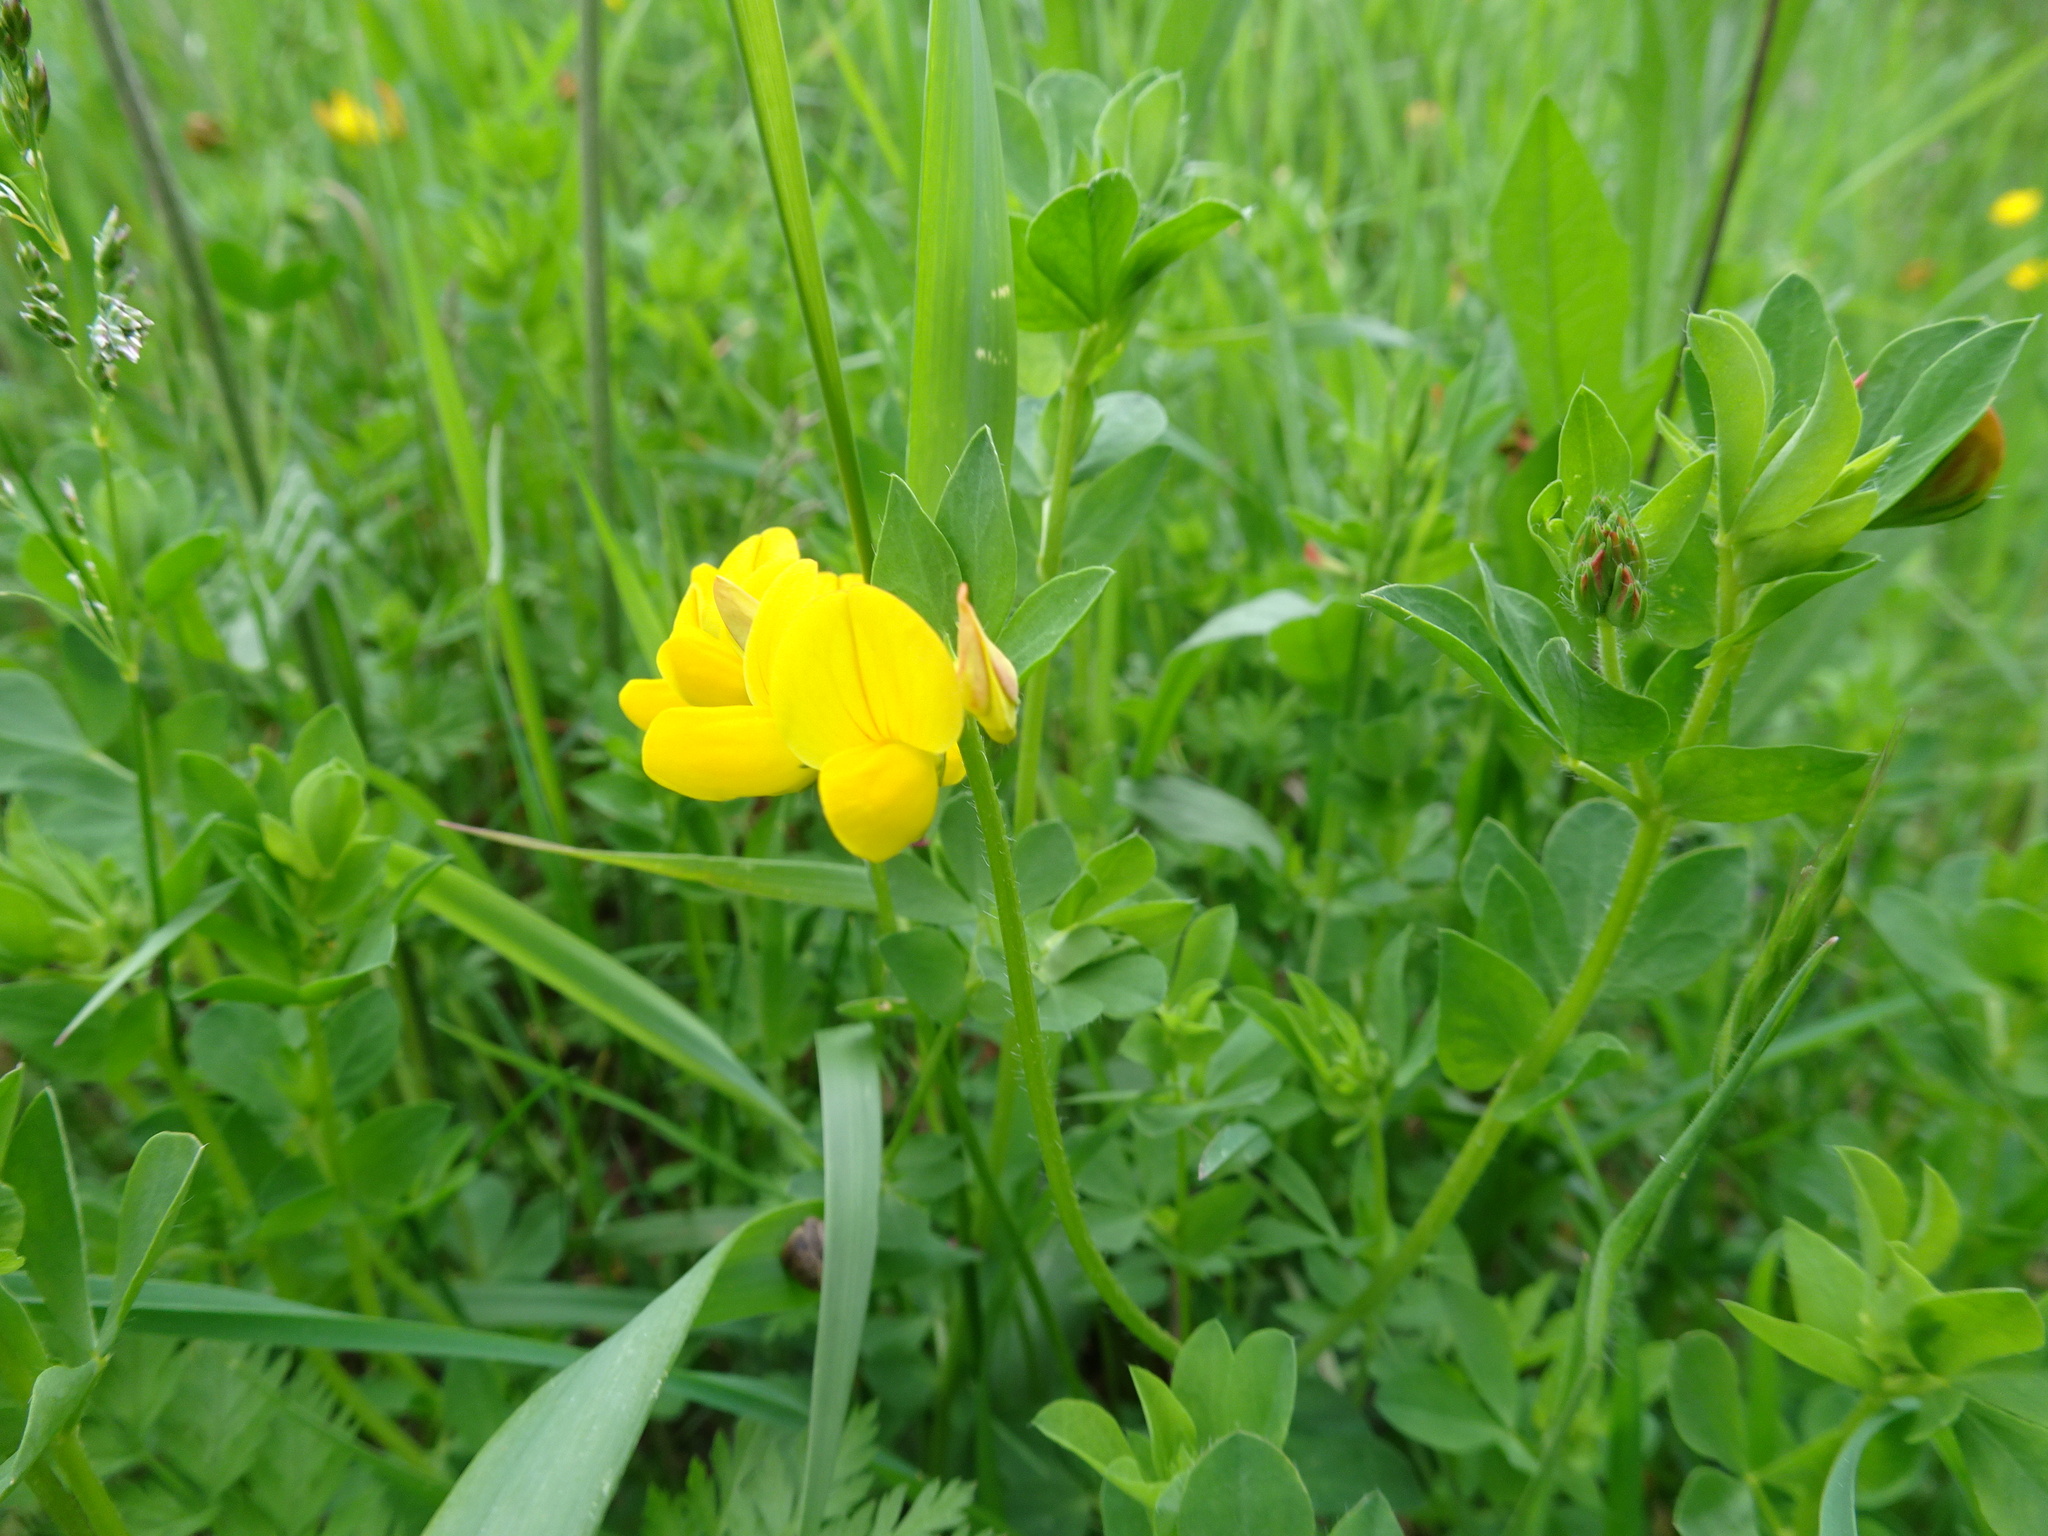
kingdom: Plantae
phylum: Tracheophyta
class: Magnoliopsida
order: Fabales
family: Fabaceae
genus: Lotus
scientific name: Lotus corniculatus
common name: Common bird's-foot-trefoil
